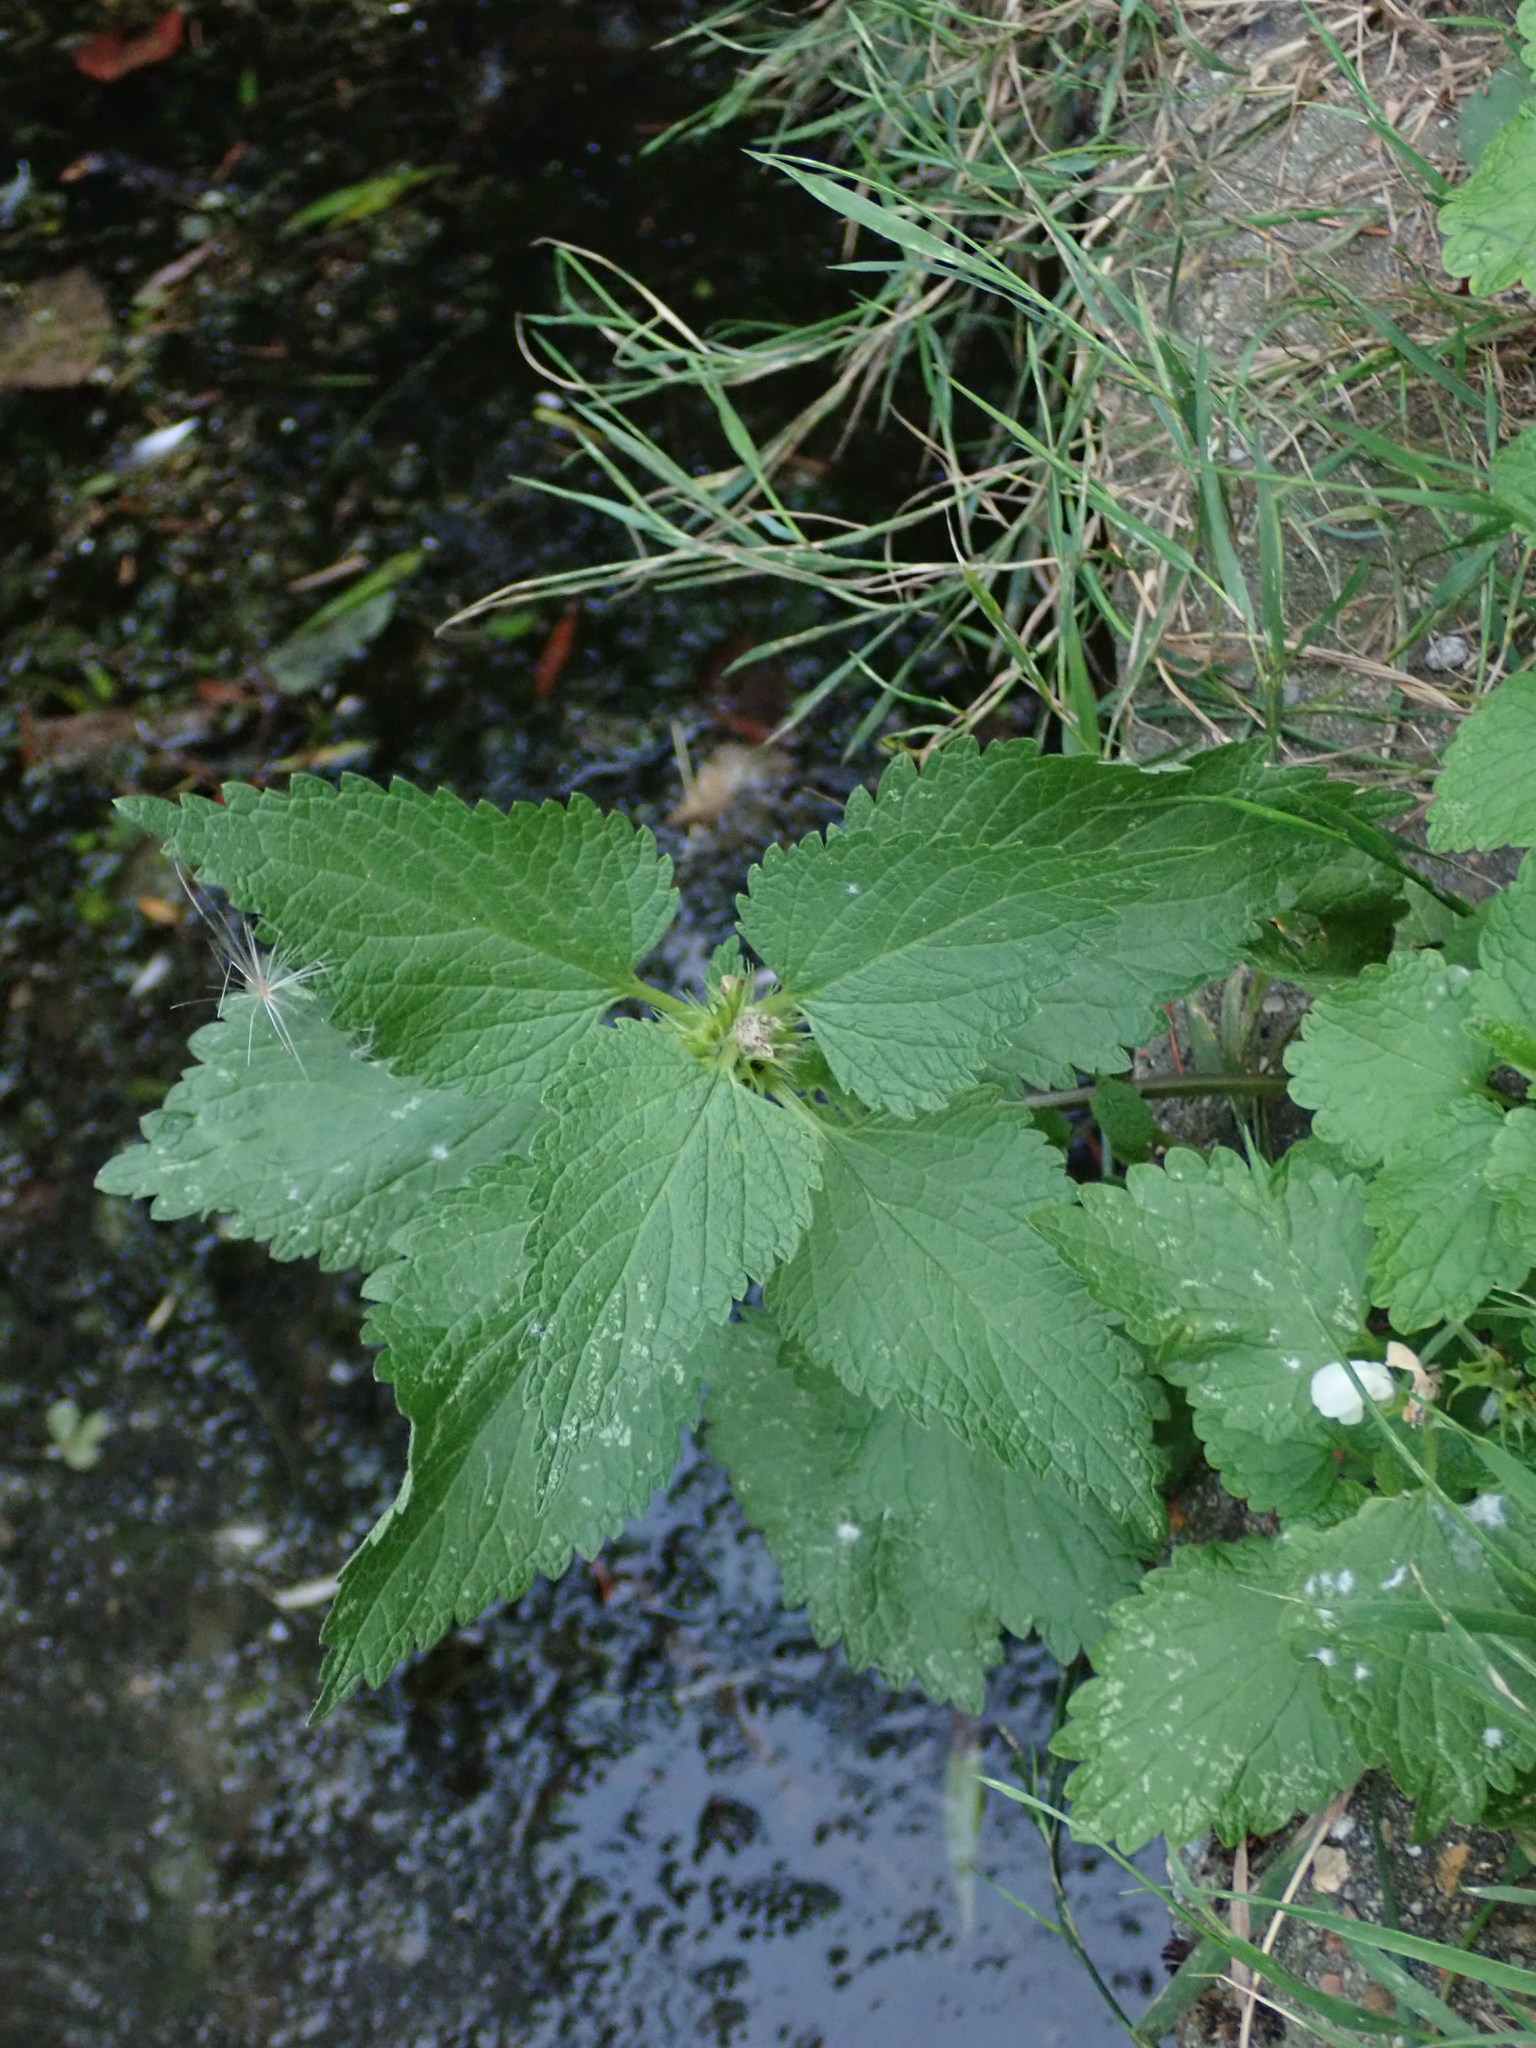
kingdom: Plantae
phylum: Tracheophyta
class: Magnoliopsida
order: Lamiales
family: Lamiaceae
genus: Lamium
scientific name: Lamium album
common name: White dead-nettle
